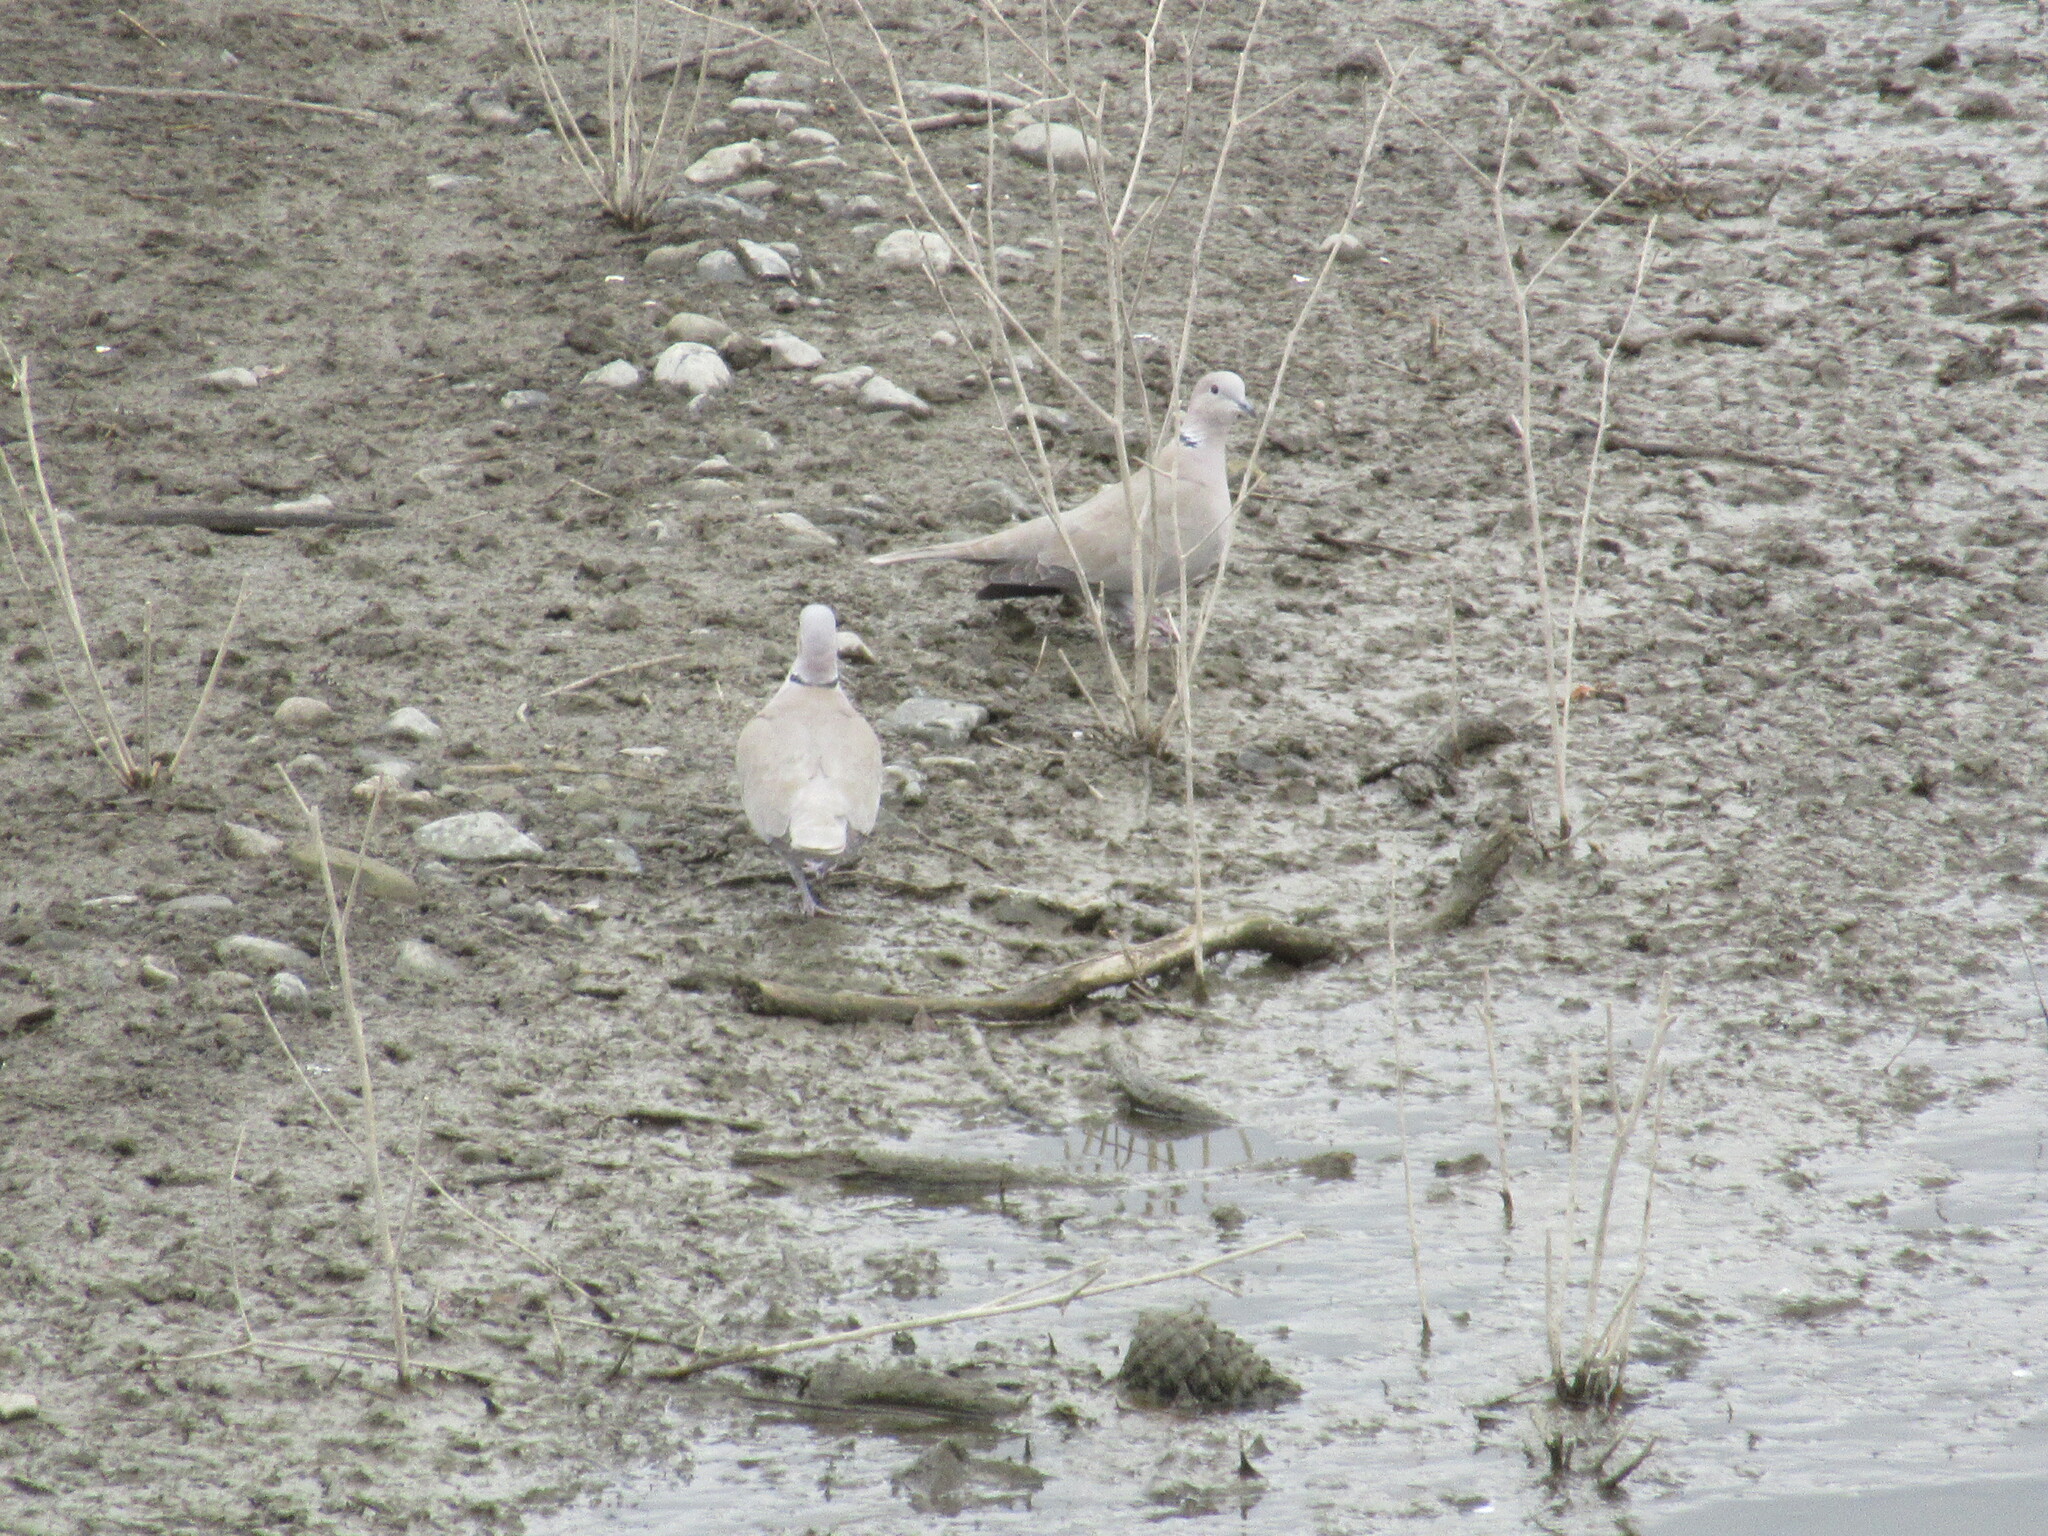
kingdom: Animalia
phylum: Chordata
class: Aves
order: Columbiformes
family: Columbidae
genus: Streptopelia
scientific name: Streptopelia decaocto
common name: Eurasian collared dove
